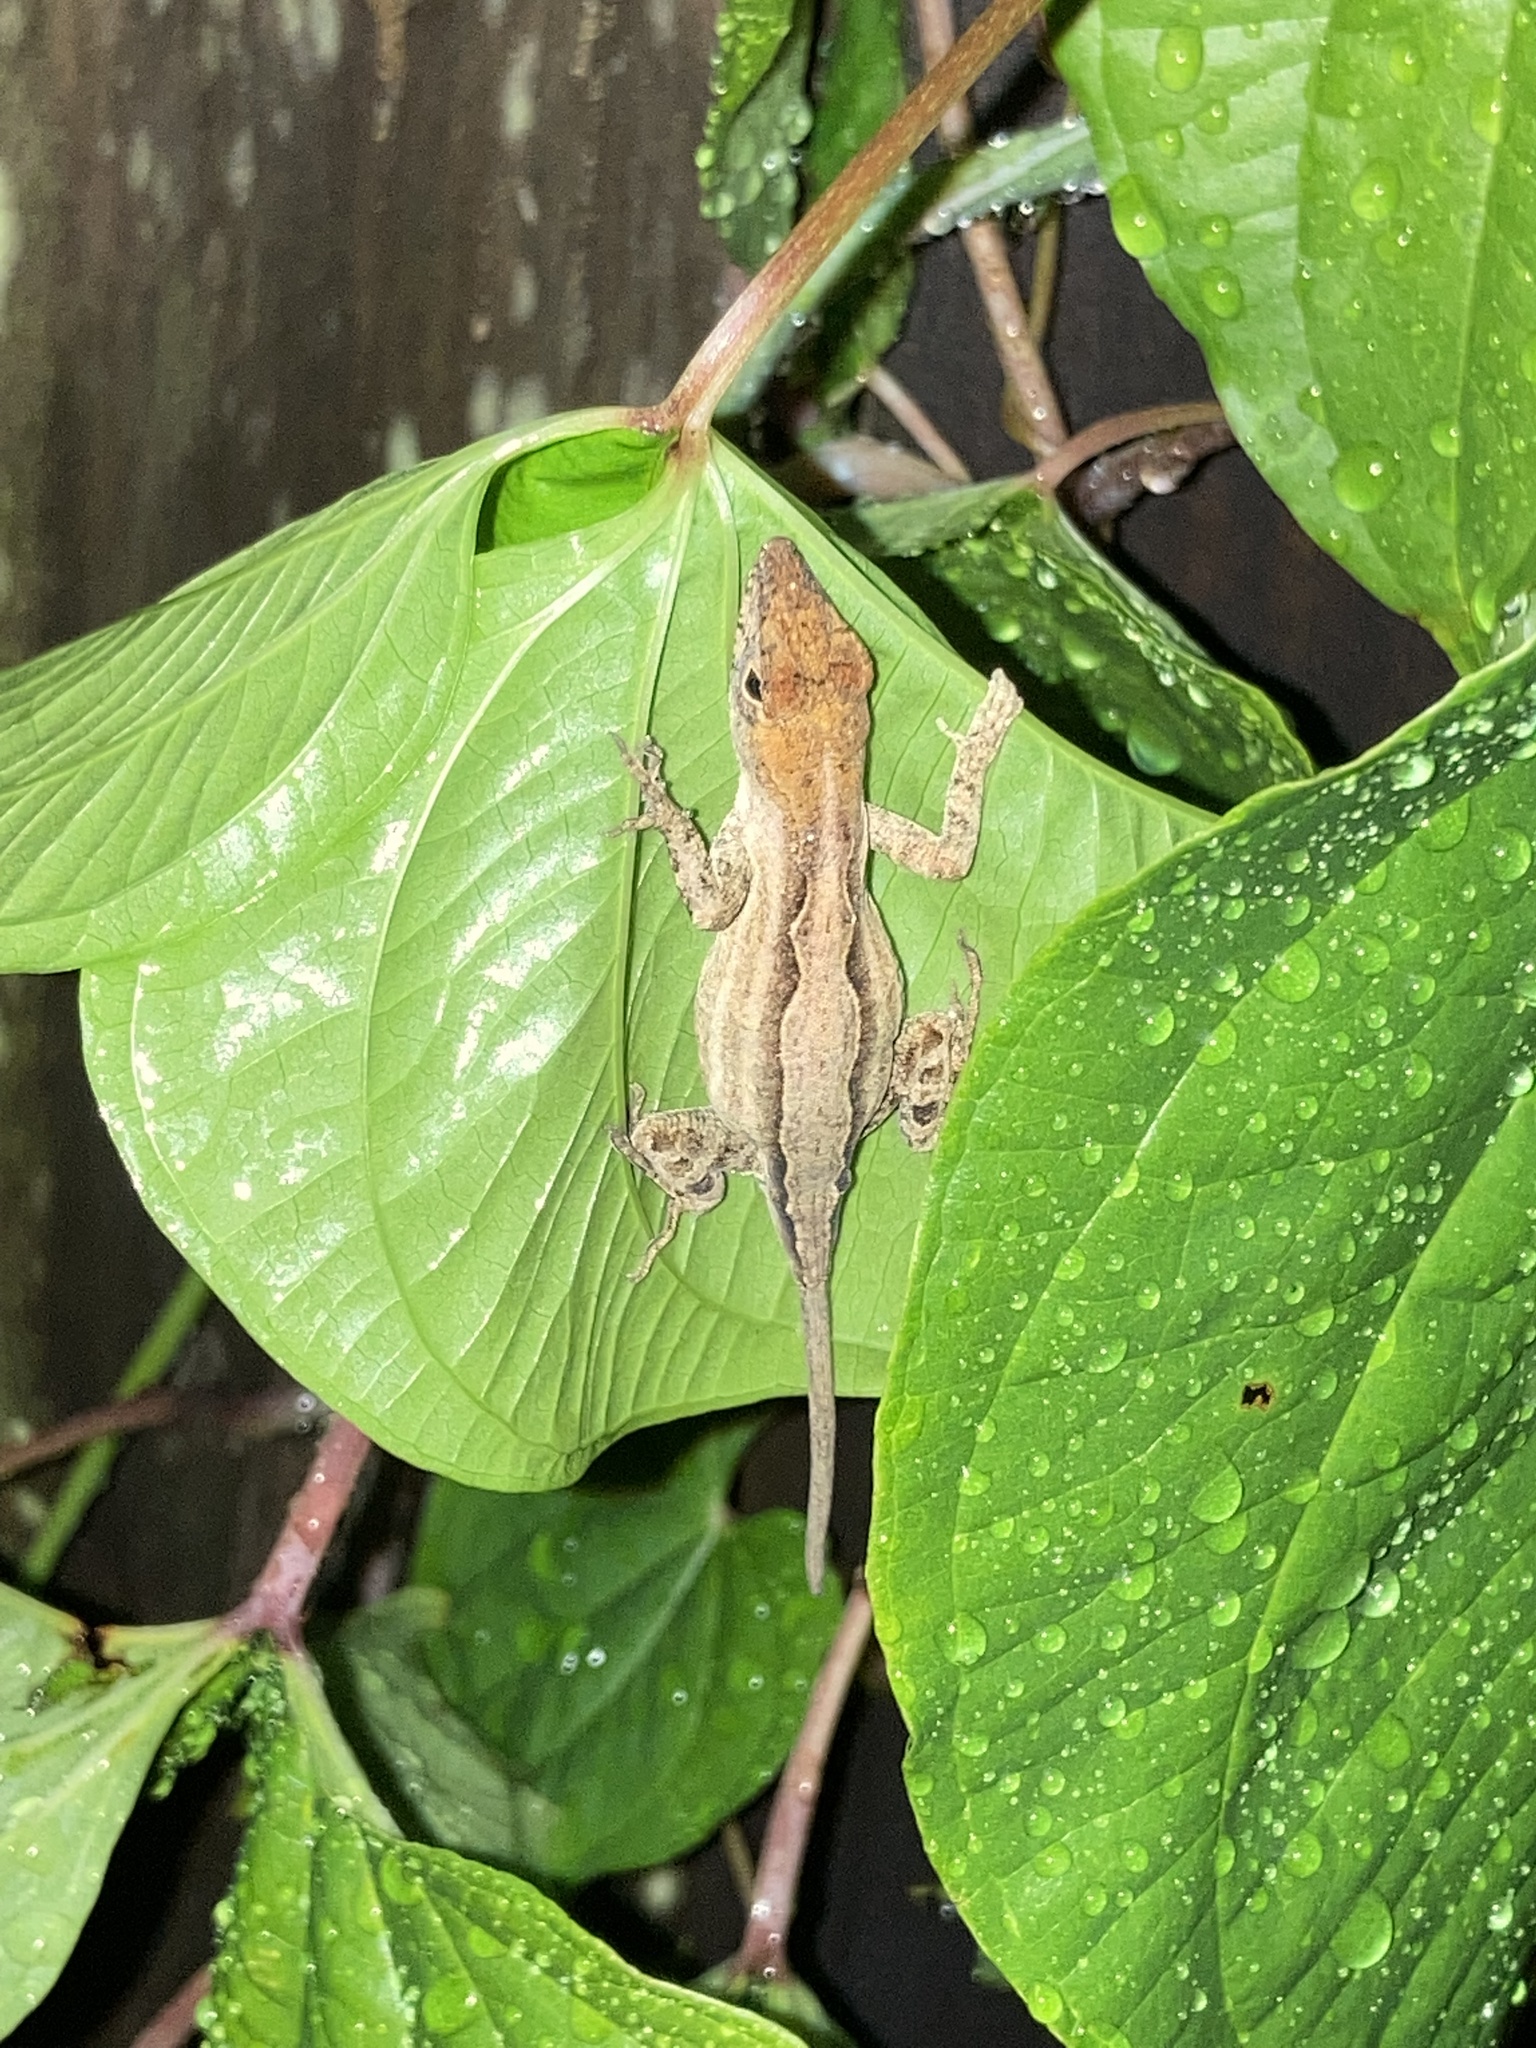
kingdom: Animalia
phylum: Chordata
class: Squamata
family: Dactyloidae
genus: Anolis
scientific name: Anolis sagrei
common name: Brown anole
